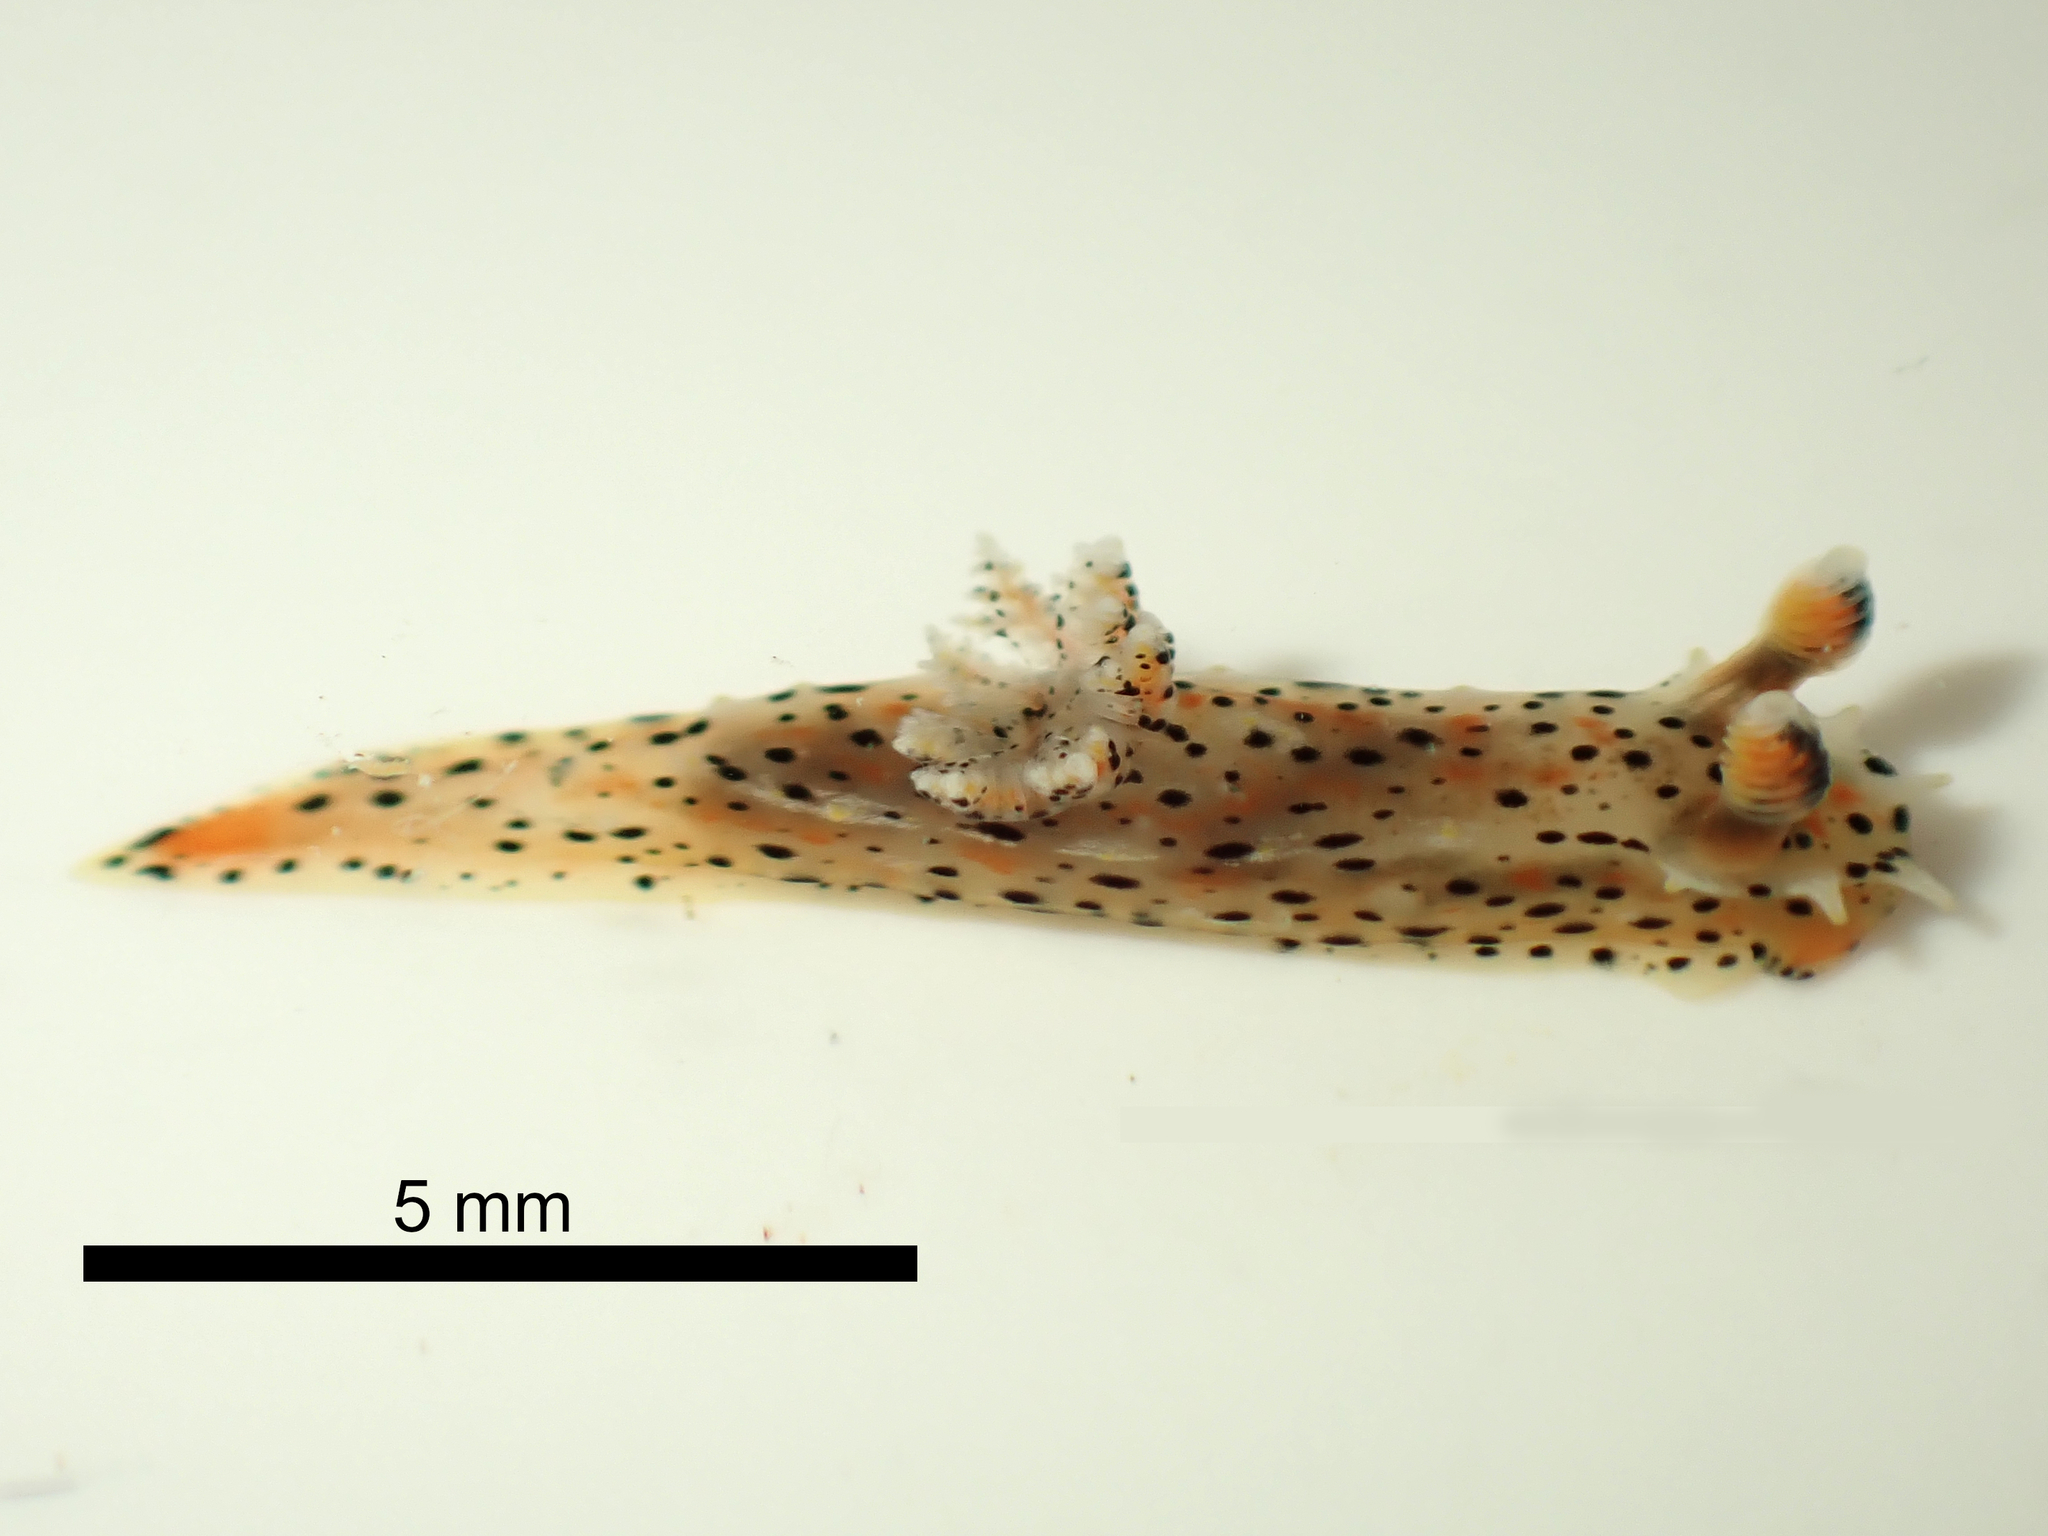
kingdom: Animalia
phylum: Mollusca
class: Gastropoda
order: Nudibranchia
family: Polyceridae
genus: Polycera
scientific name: Polycera fujitai
